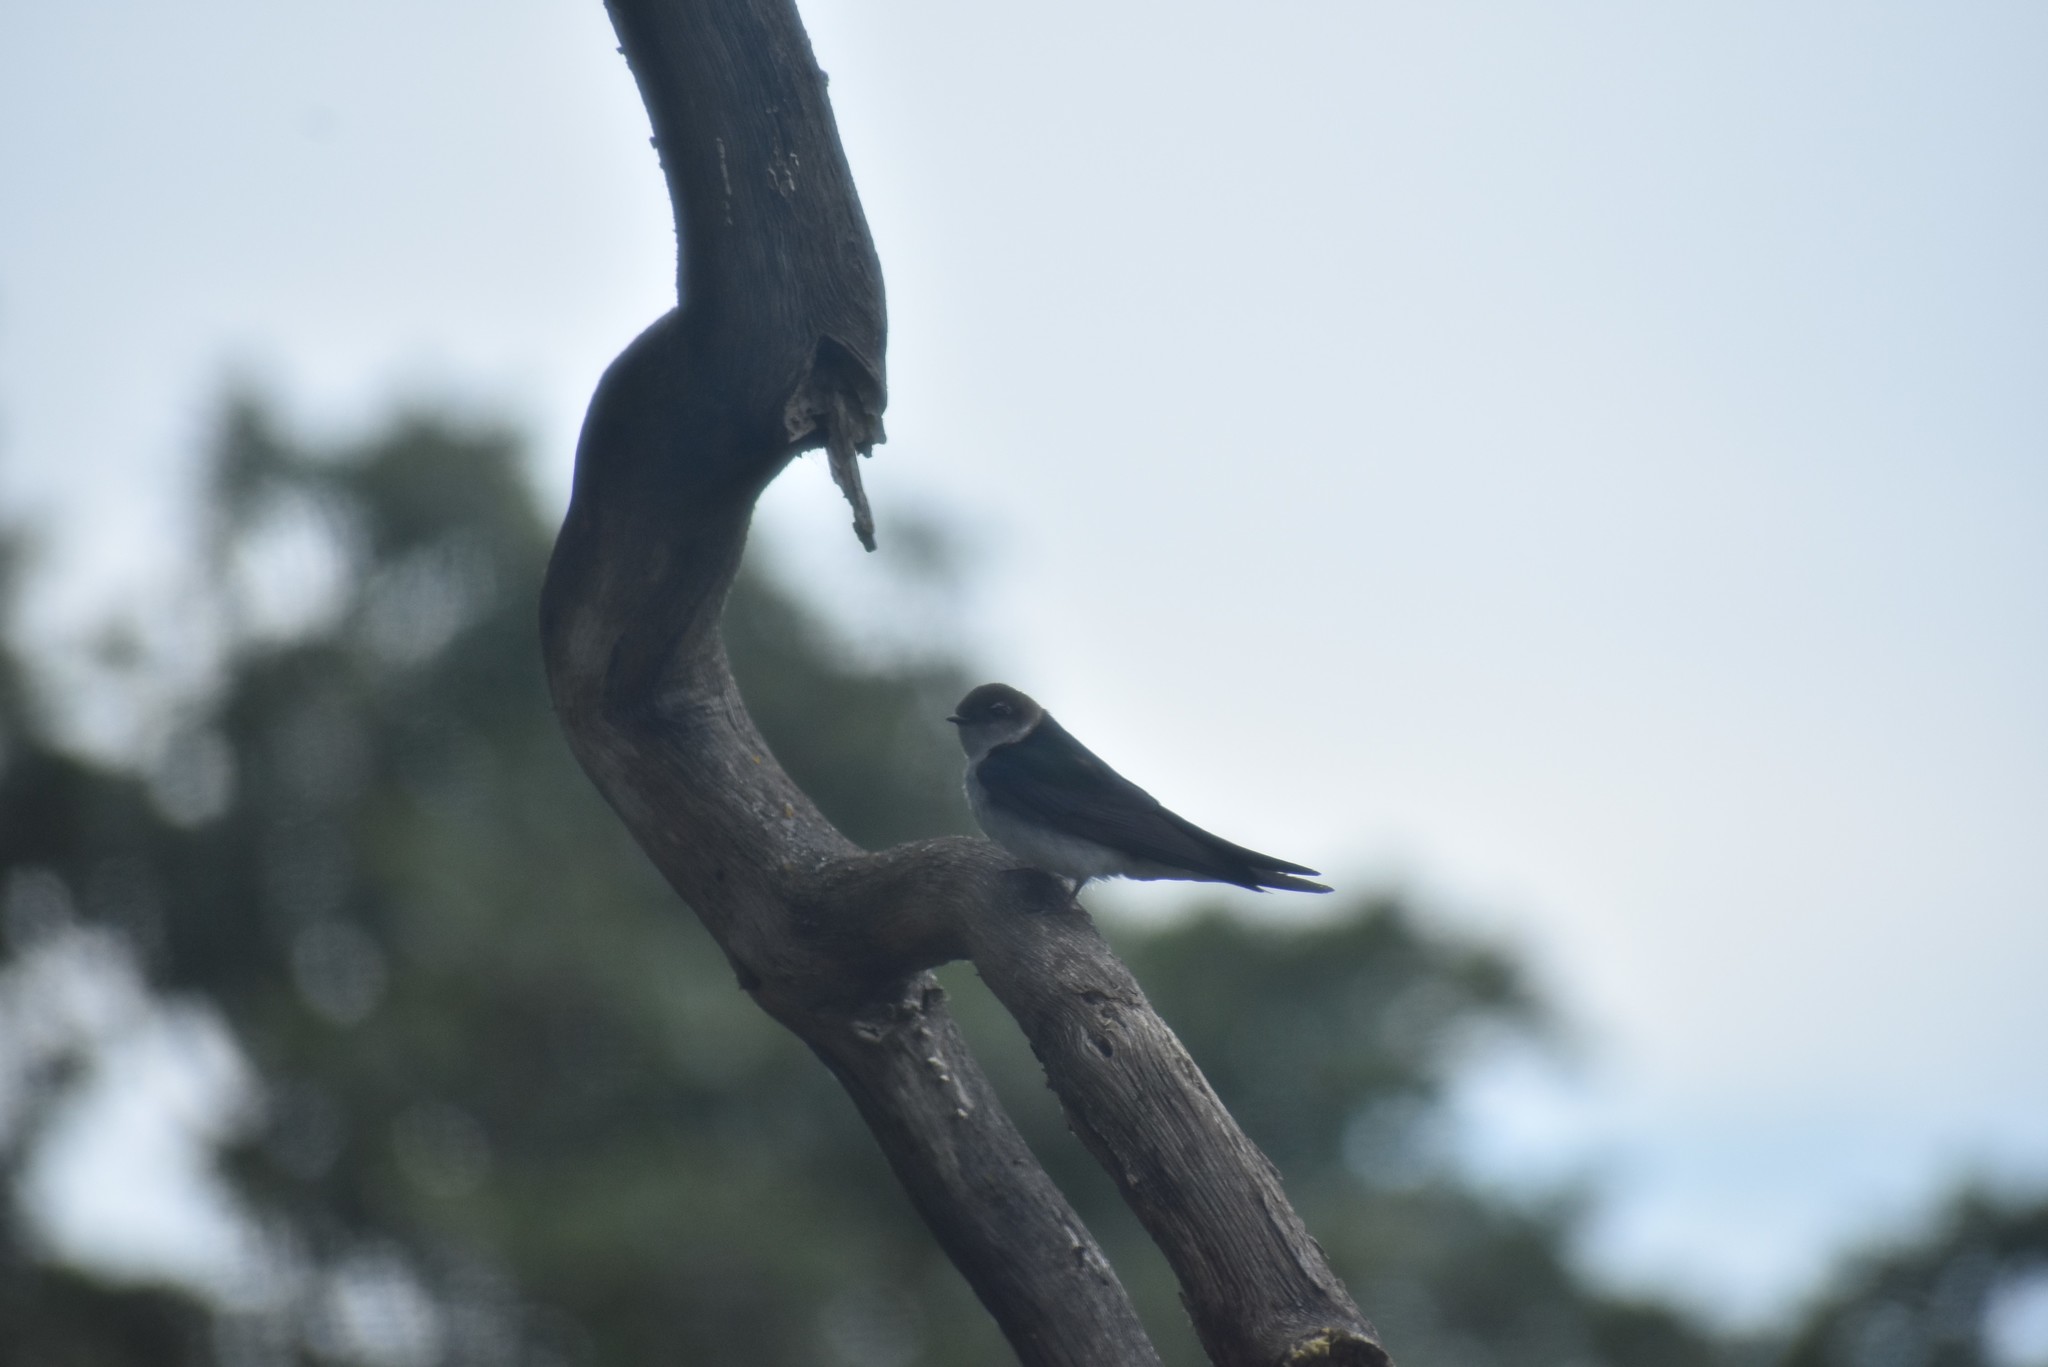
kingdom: Animalia
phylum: Chordata
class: Aves
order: Passeriformes
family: Hirundinidae
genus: Tachycineta
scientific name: Tachycineta thalassina
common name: Violet-green swallow
